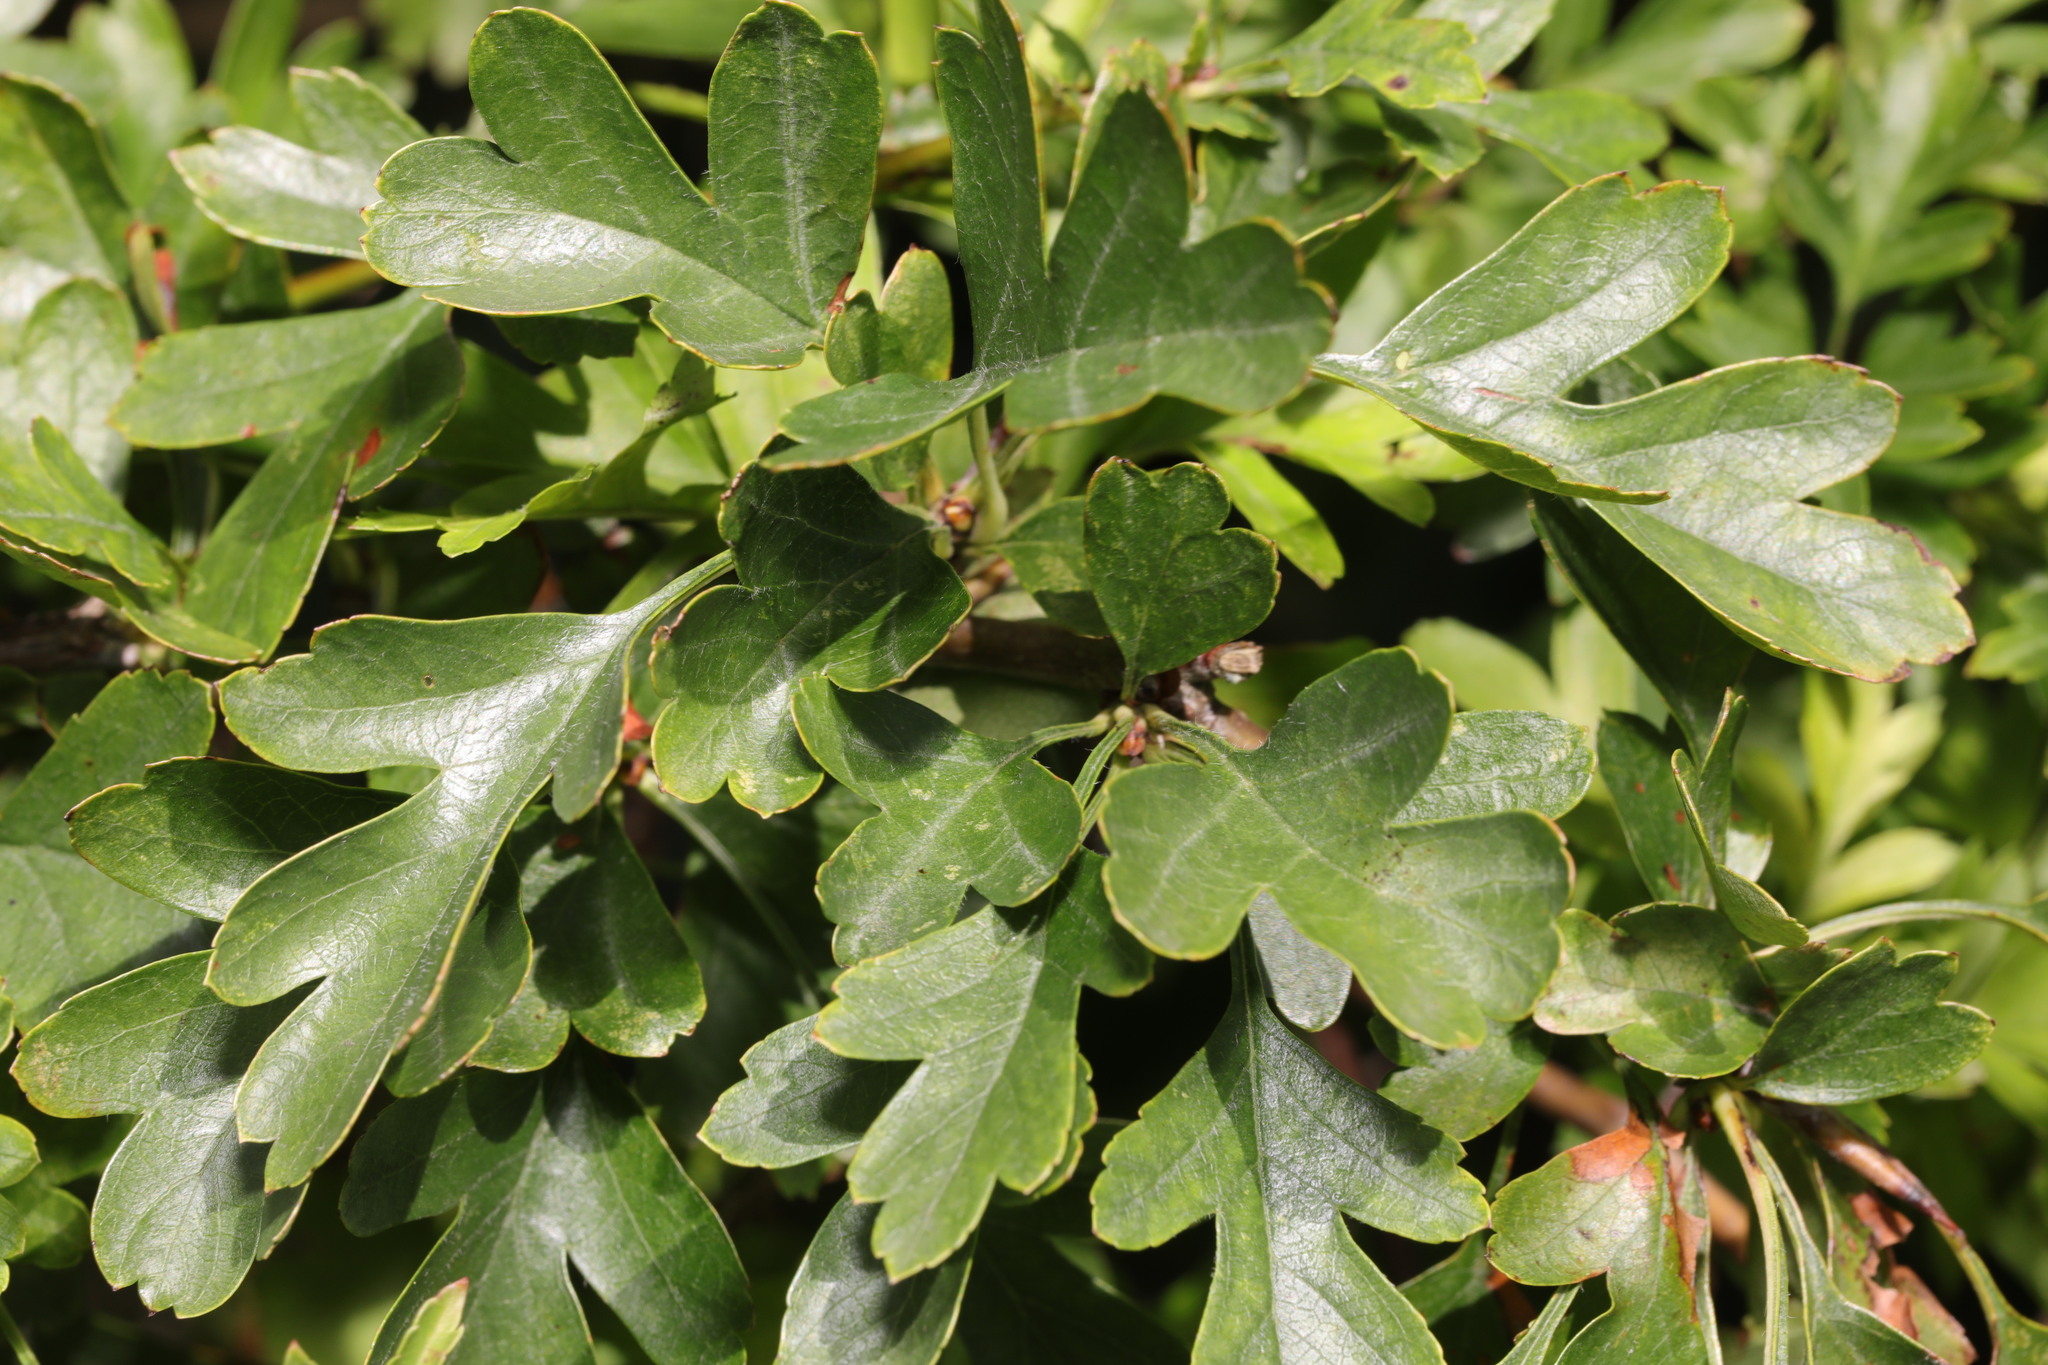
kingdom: Plantae
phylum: Tracheophyta
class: Magnoliopsida
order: Rosales
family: Rosaceae
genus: Crataegus
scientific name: Crataegus monogyna
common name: Hawthorn
